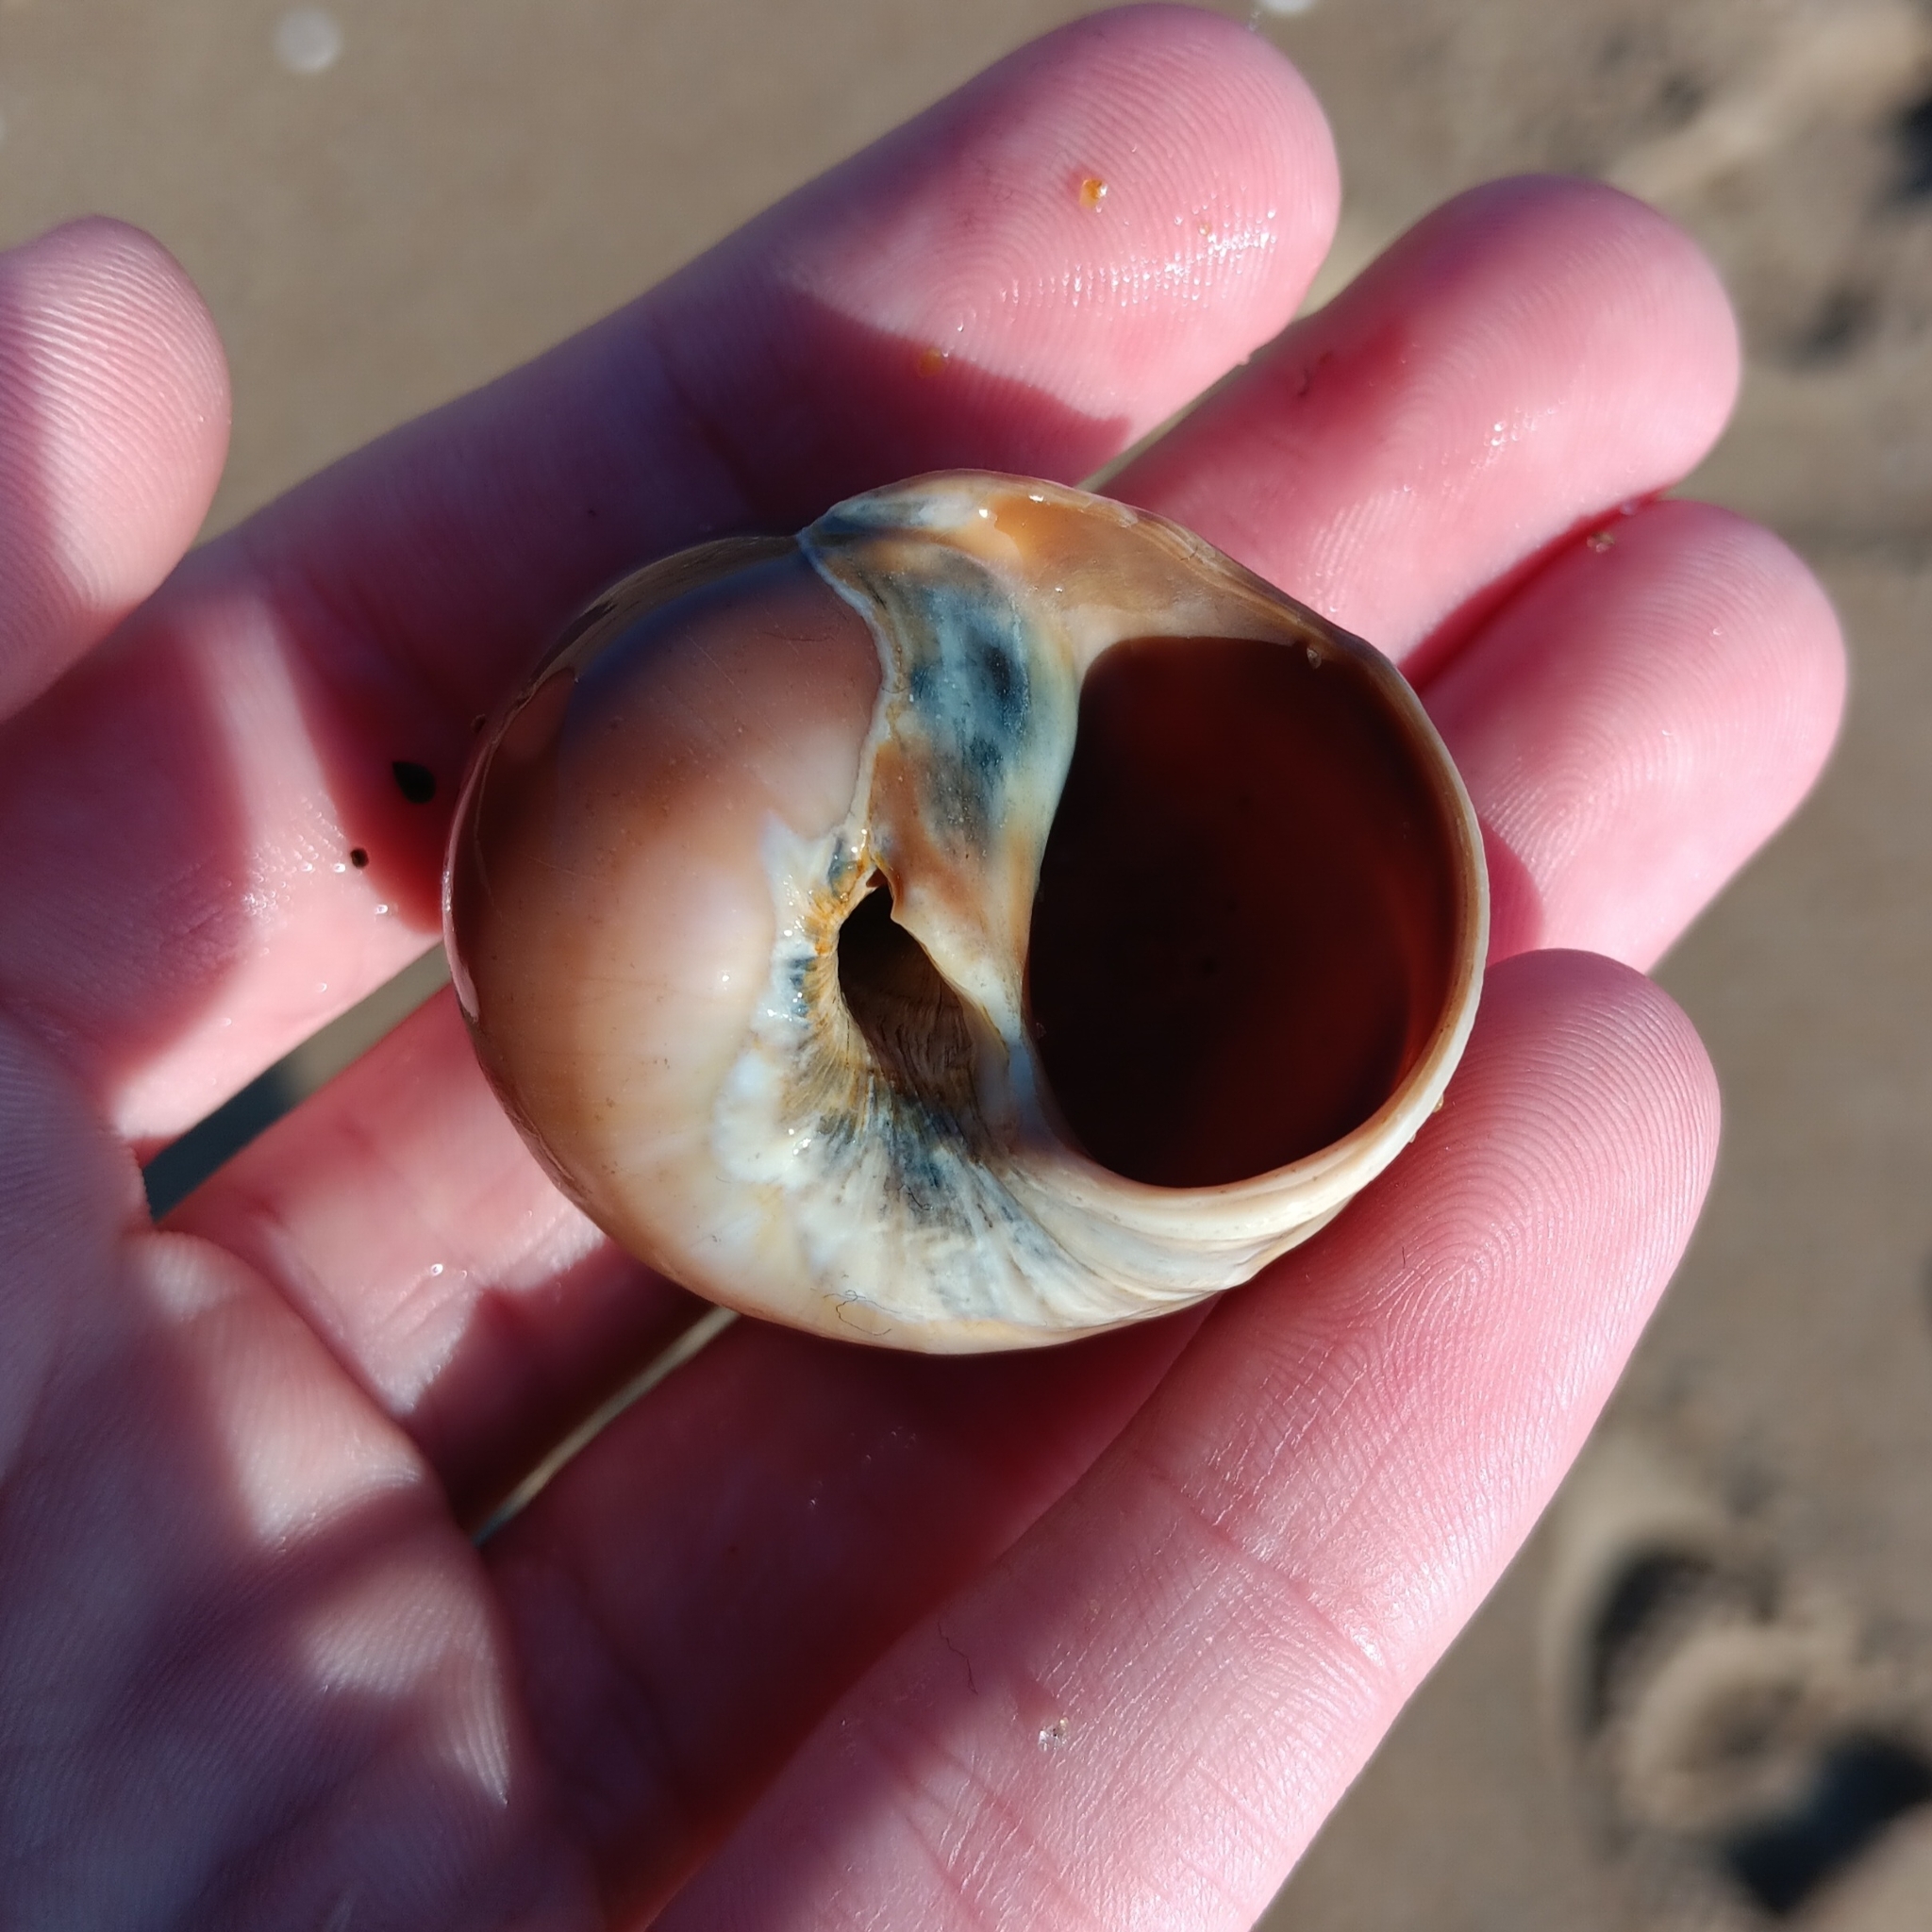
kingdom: Animalia
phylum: Mollusca
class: Gastropoda
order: Littorinimorpha
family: Naticidae
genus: Euspira
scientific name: Euspira heros
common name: Common northern moonsnail
